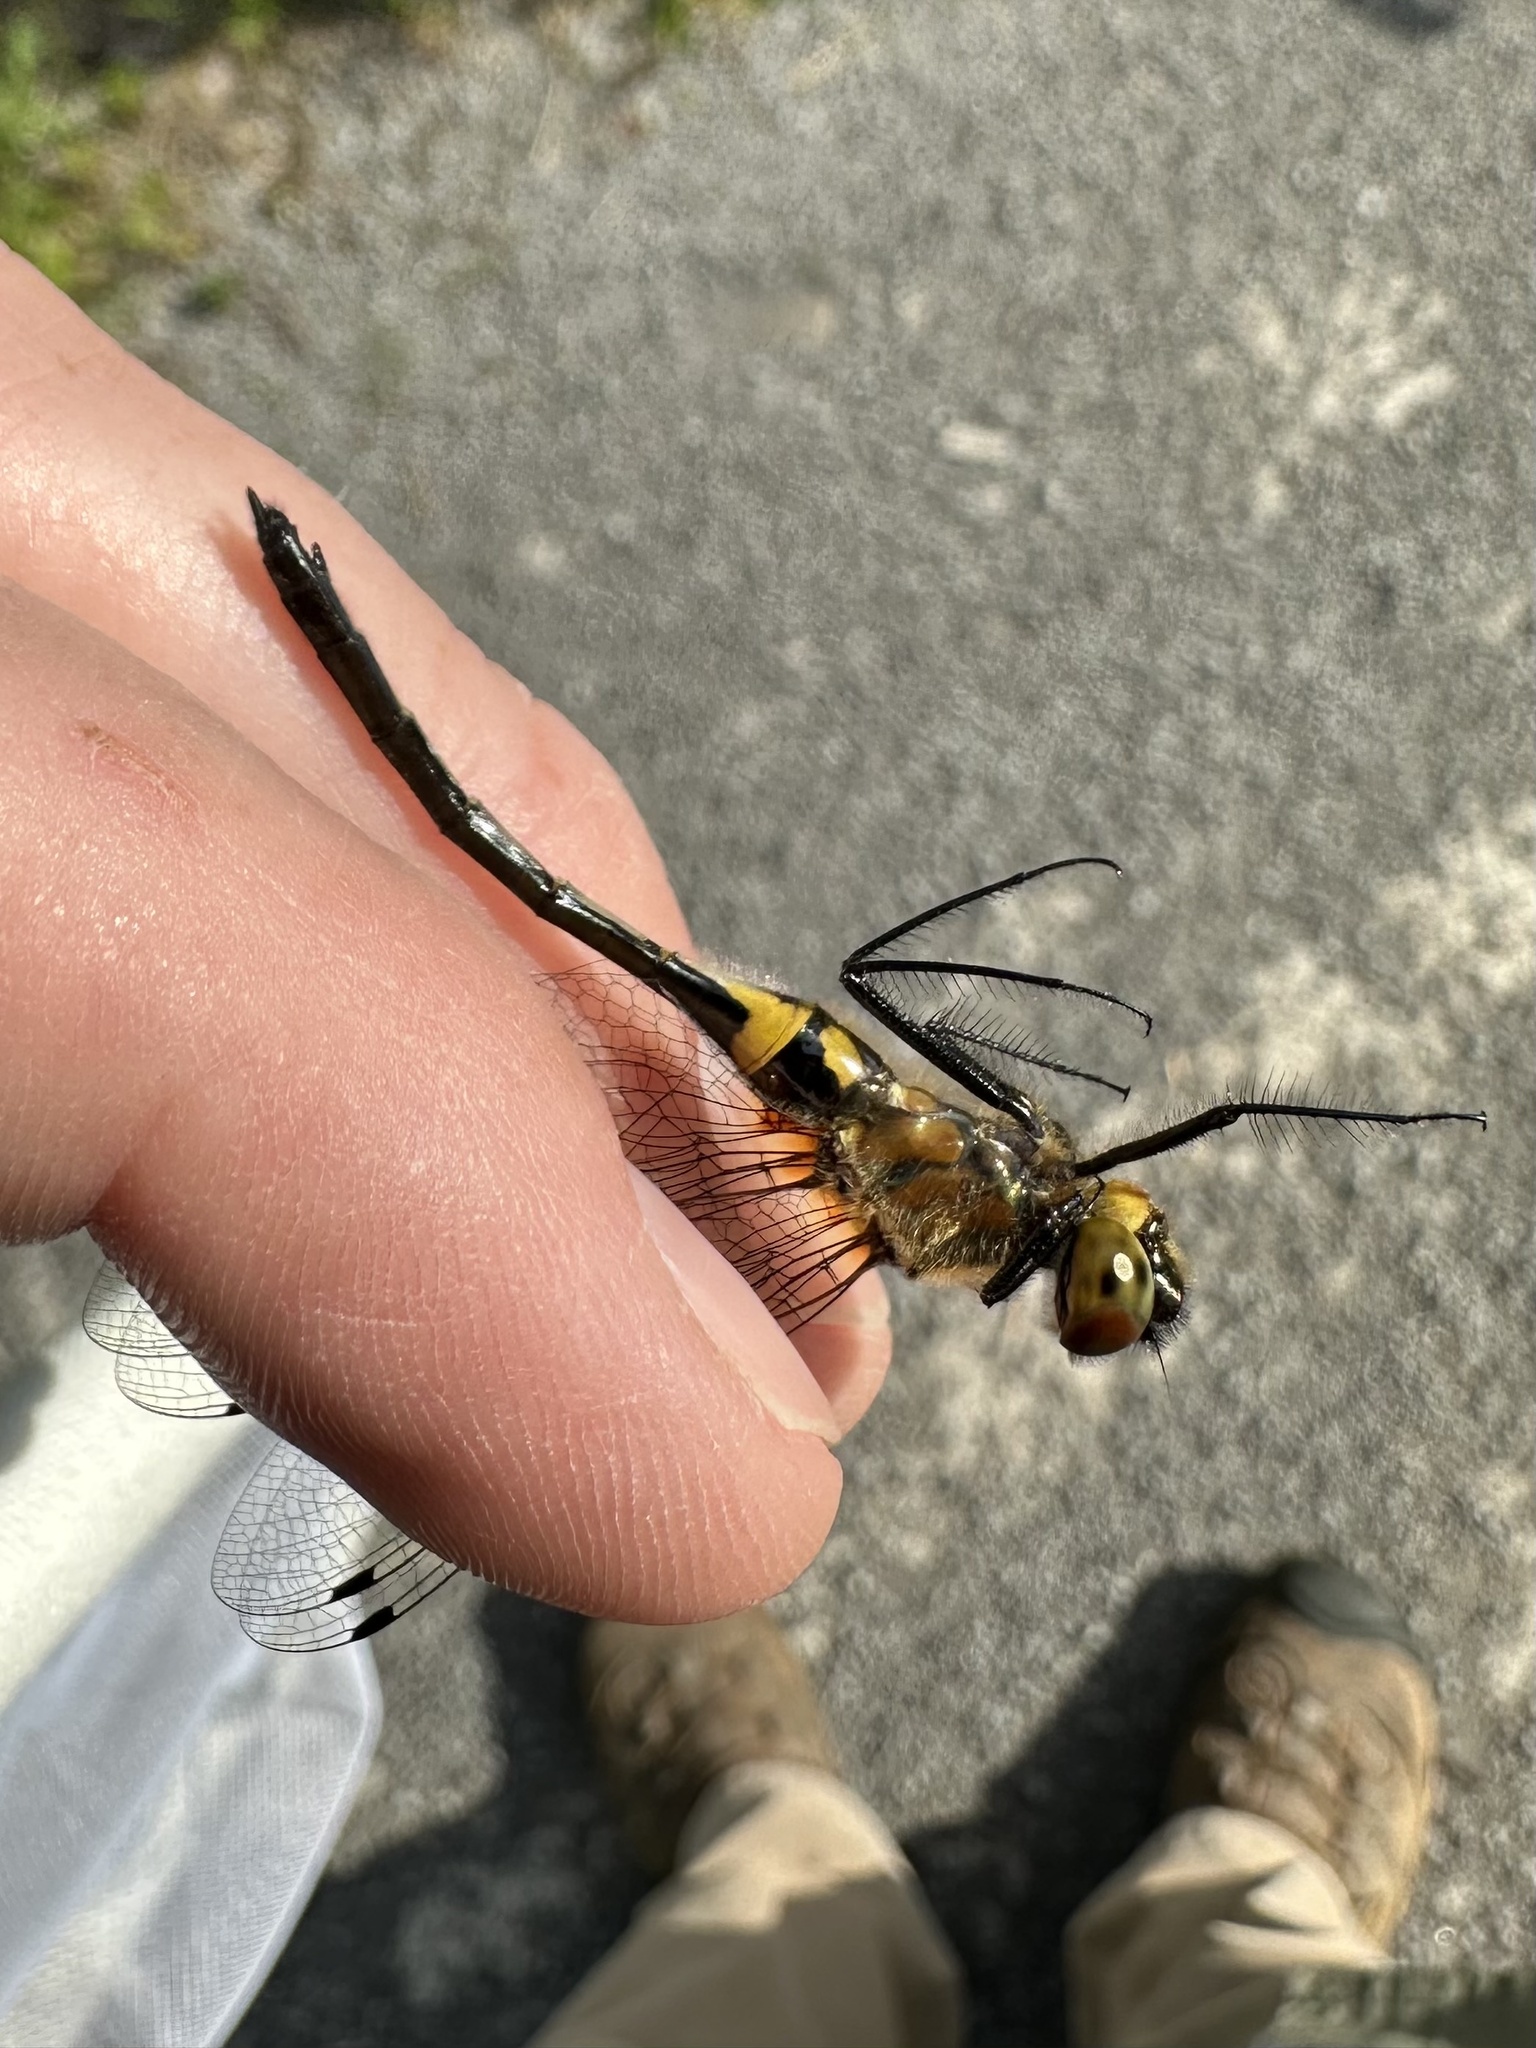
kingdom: Animalia
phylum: Arthropoda
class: Insecta
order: Odonata
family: Corduliidae
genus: Dorocordulia
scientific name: Dorocordulia libera
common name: Racket-tailed emerald
